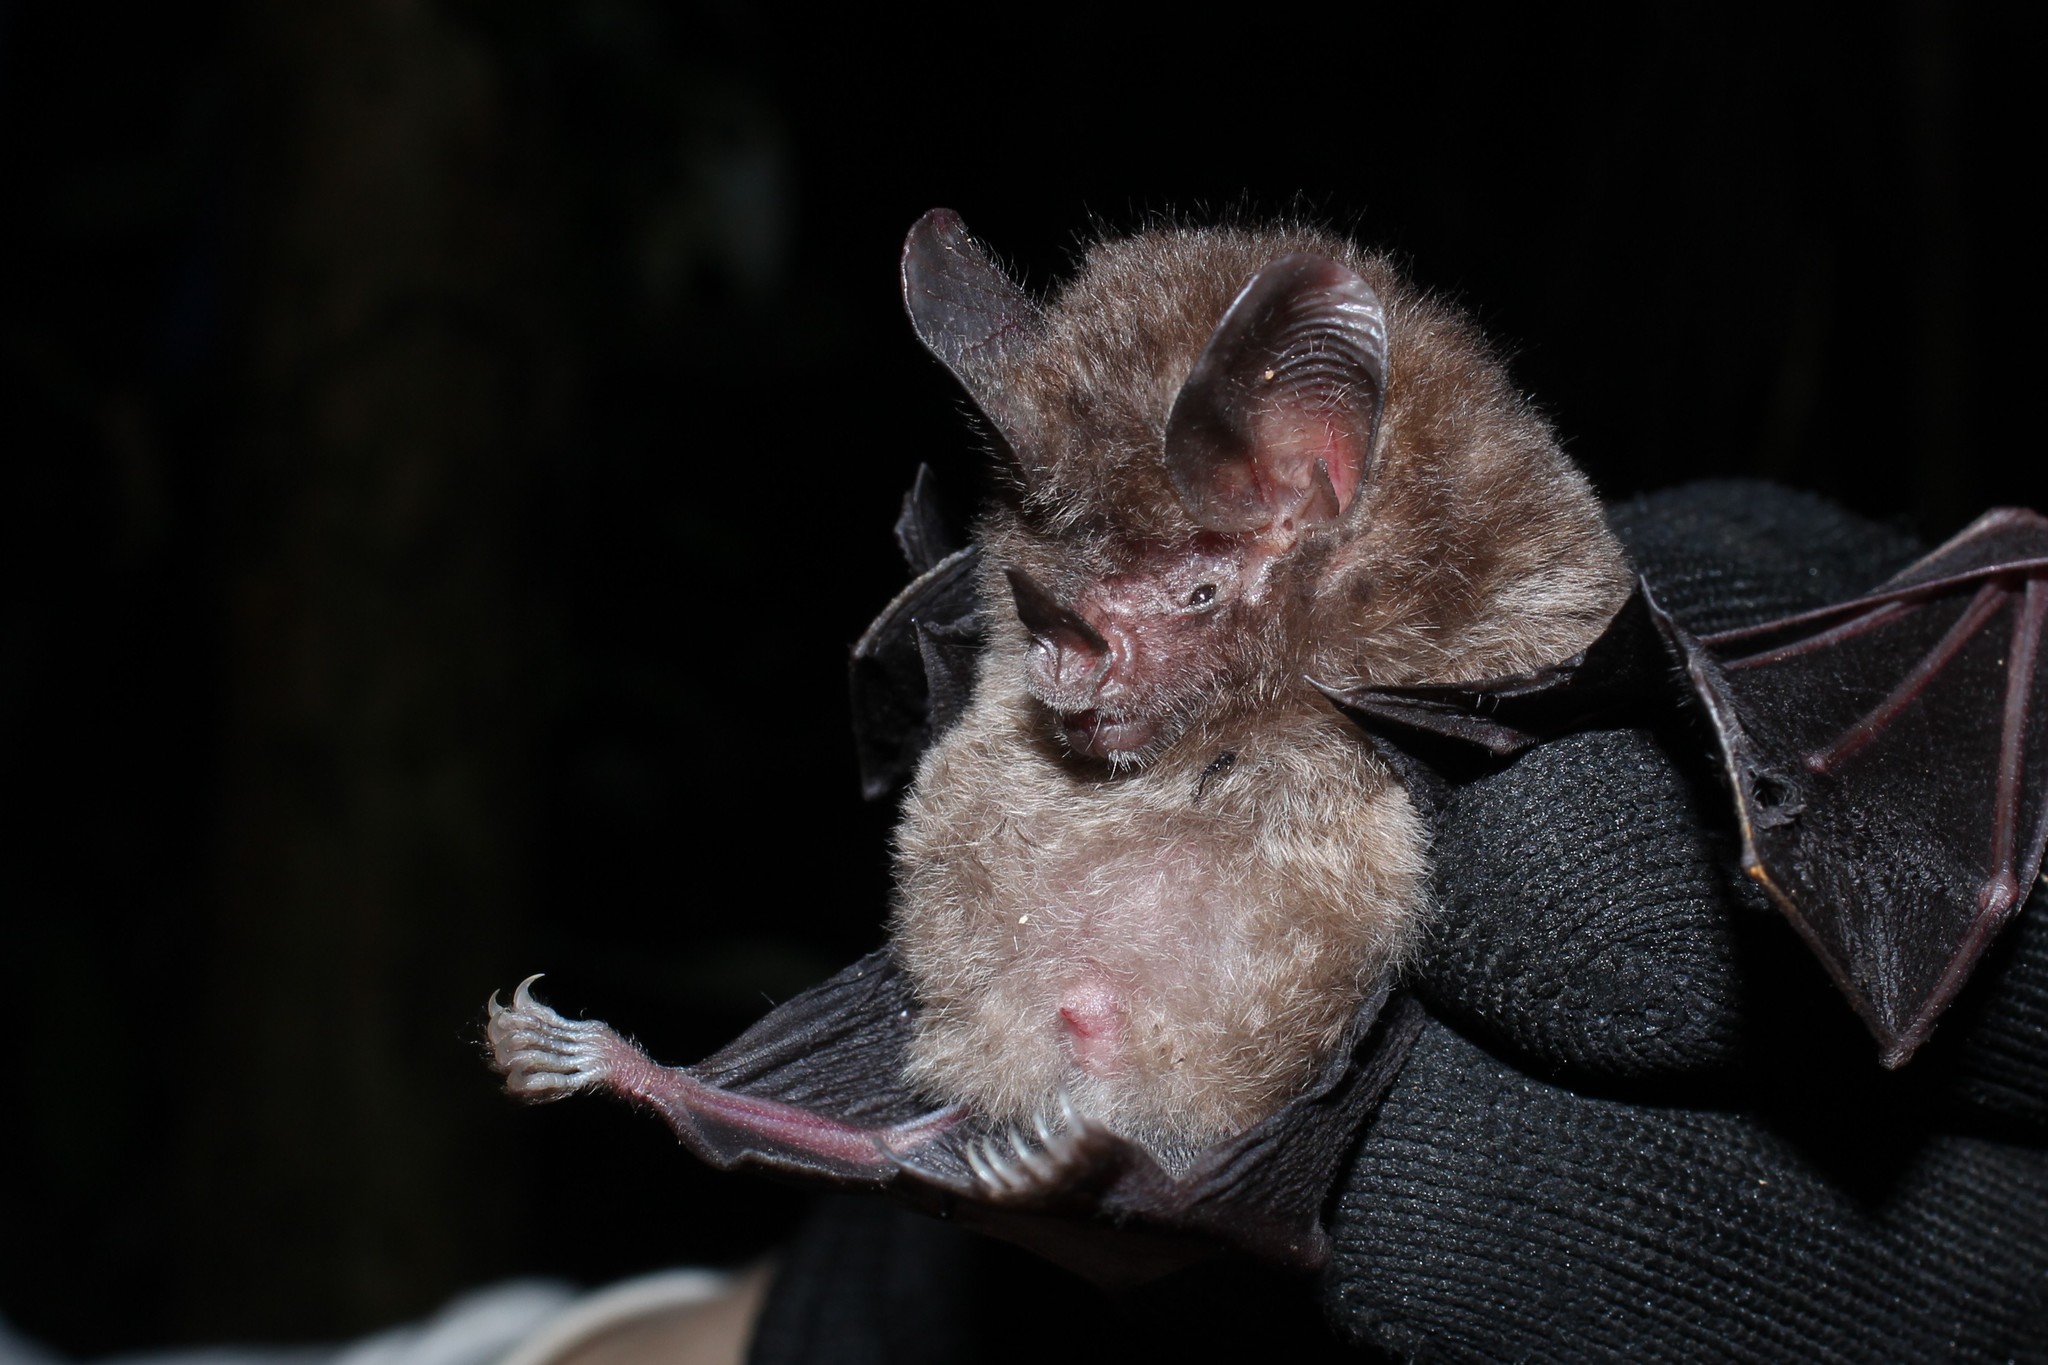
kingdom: Animalia
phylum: Chordata
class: Mammalia
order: Chiroptera
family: Phyllostomidae
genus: Micronycteris
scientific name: Micronycteris megalotis
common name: Little big-eared bat
